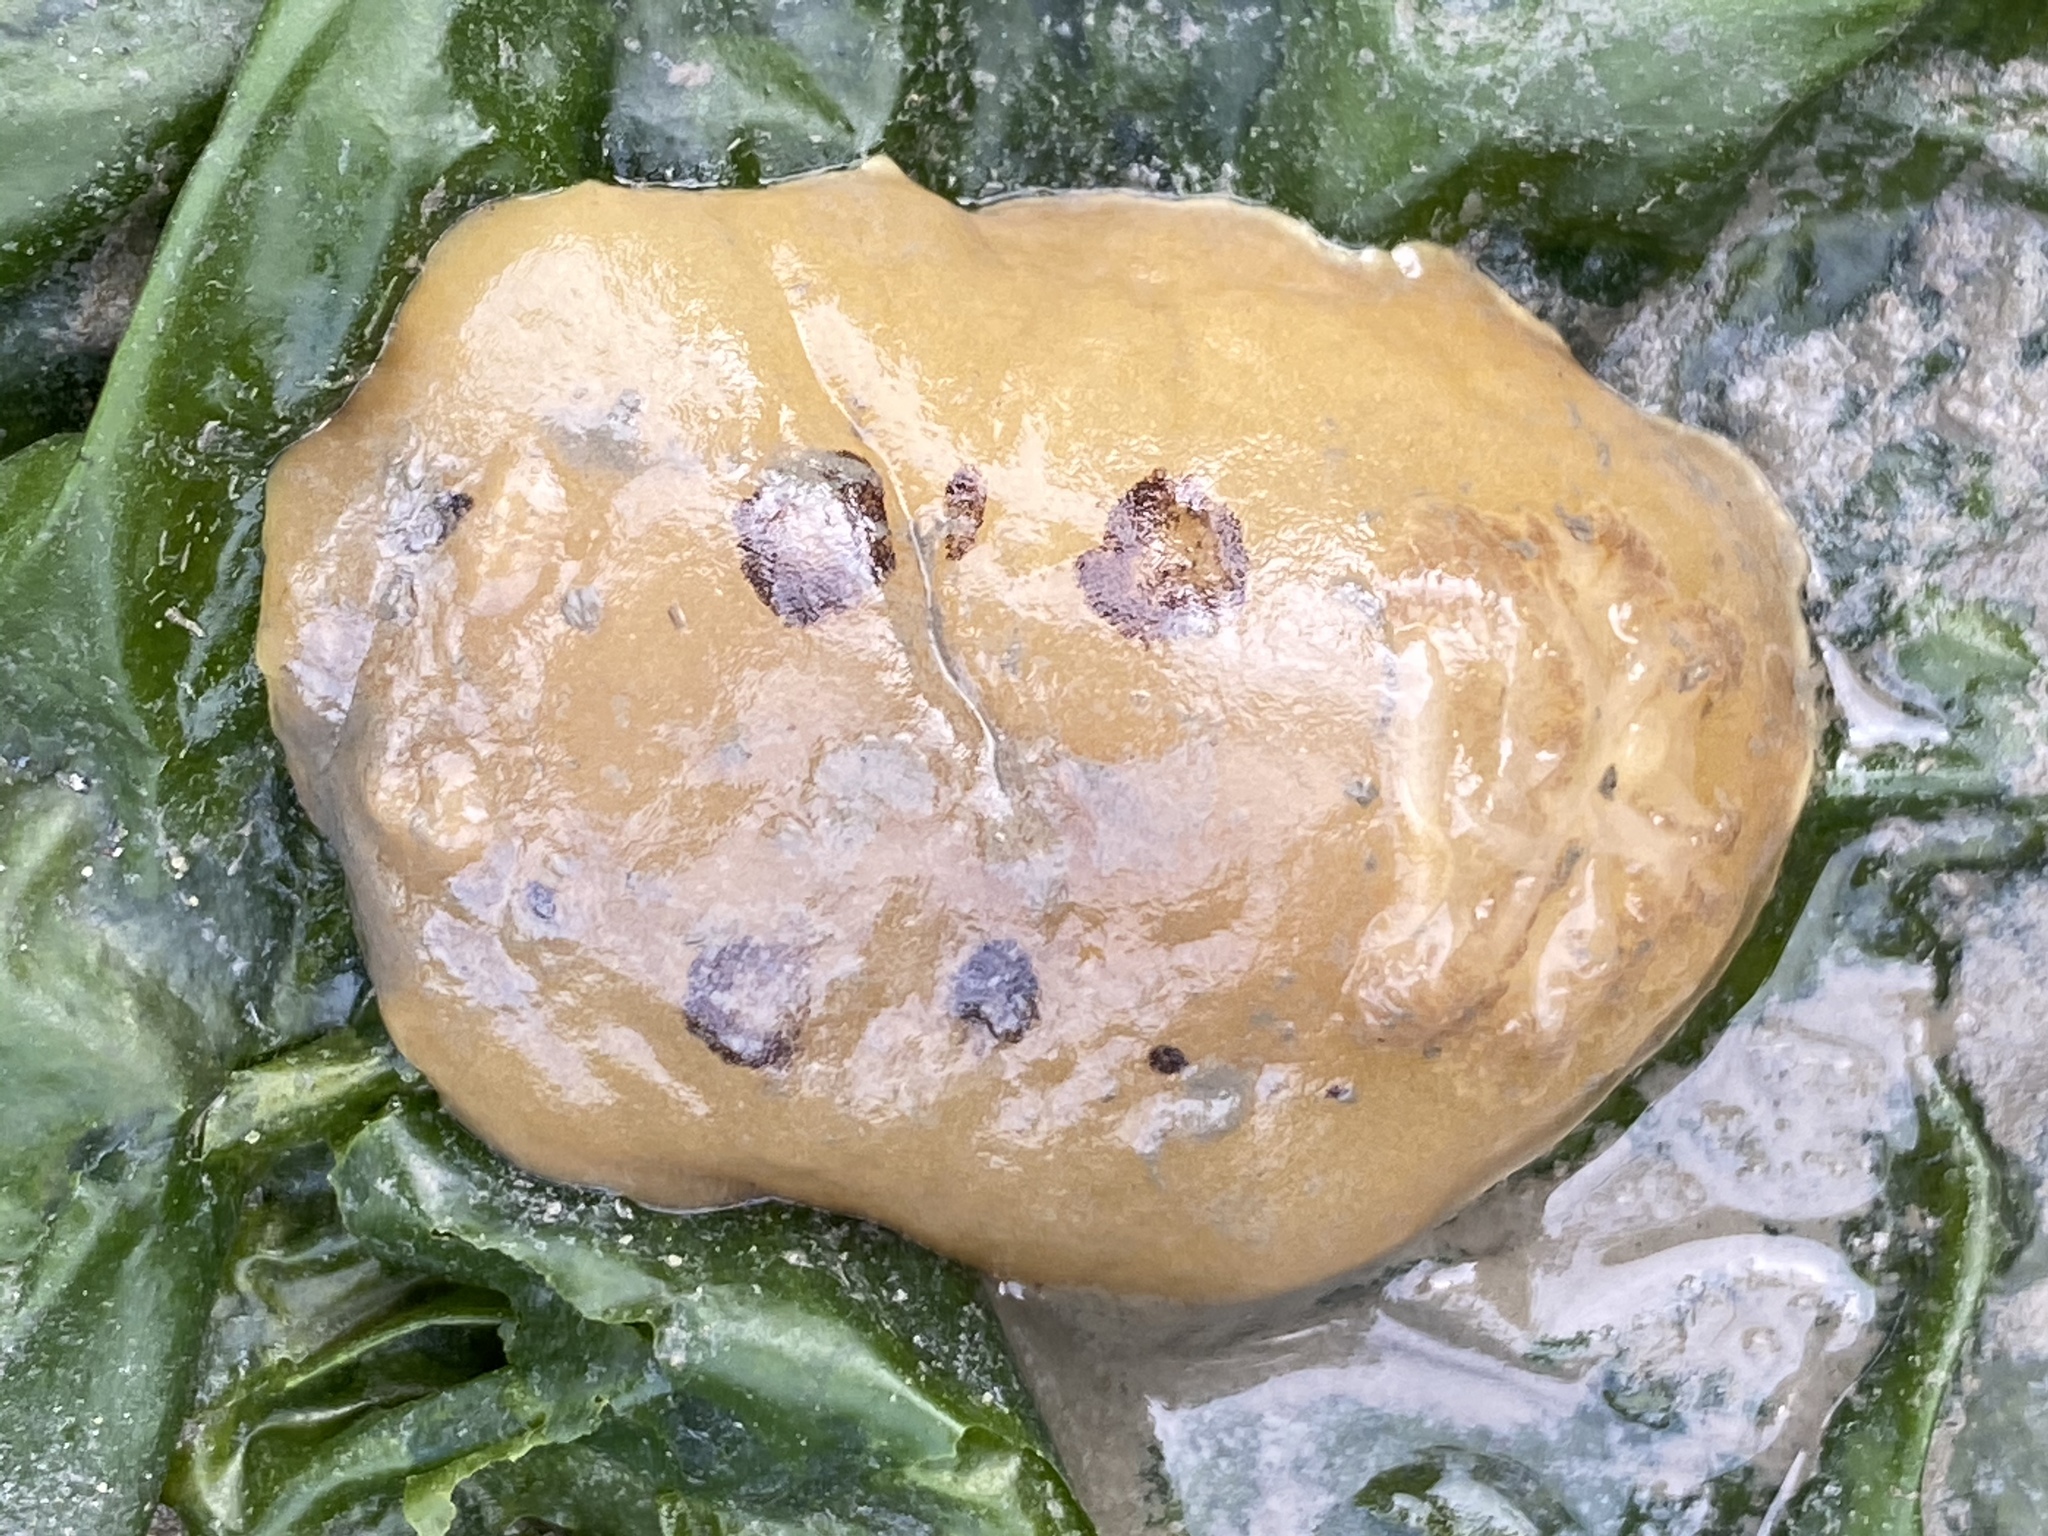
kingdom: Animalia
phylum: Mollusca
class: Gastropoda
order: Nudibranchia
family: Discodorididae
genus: Diaulula
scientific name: Diaulula sandiegensis
